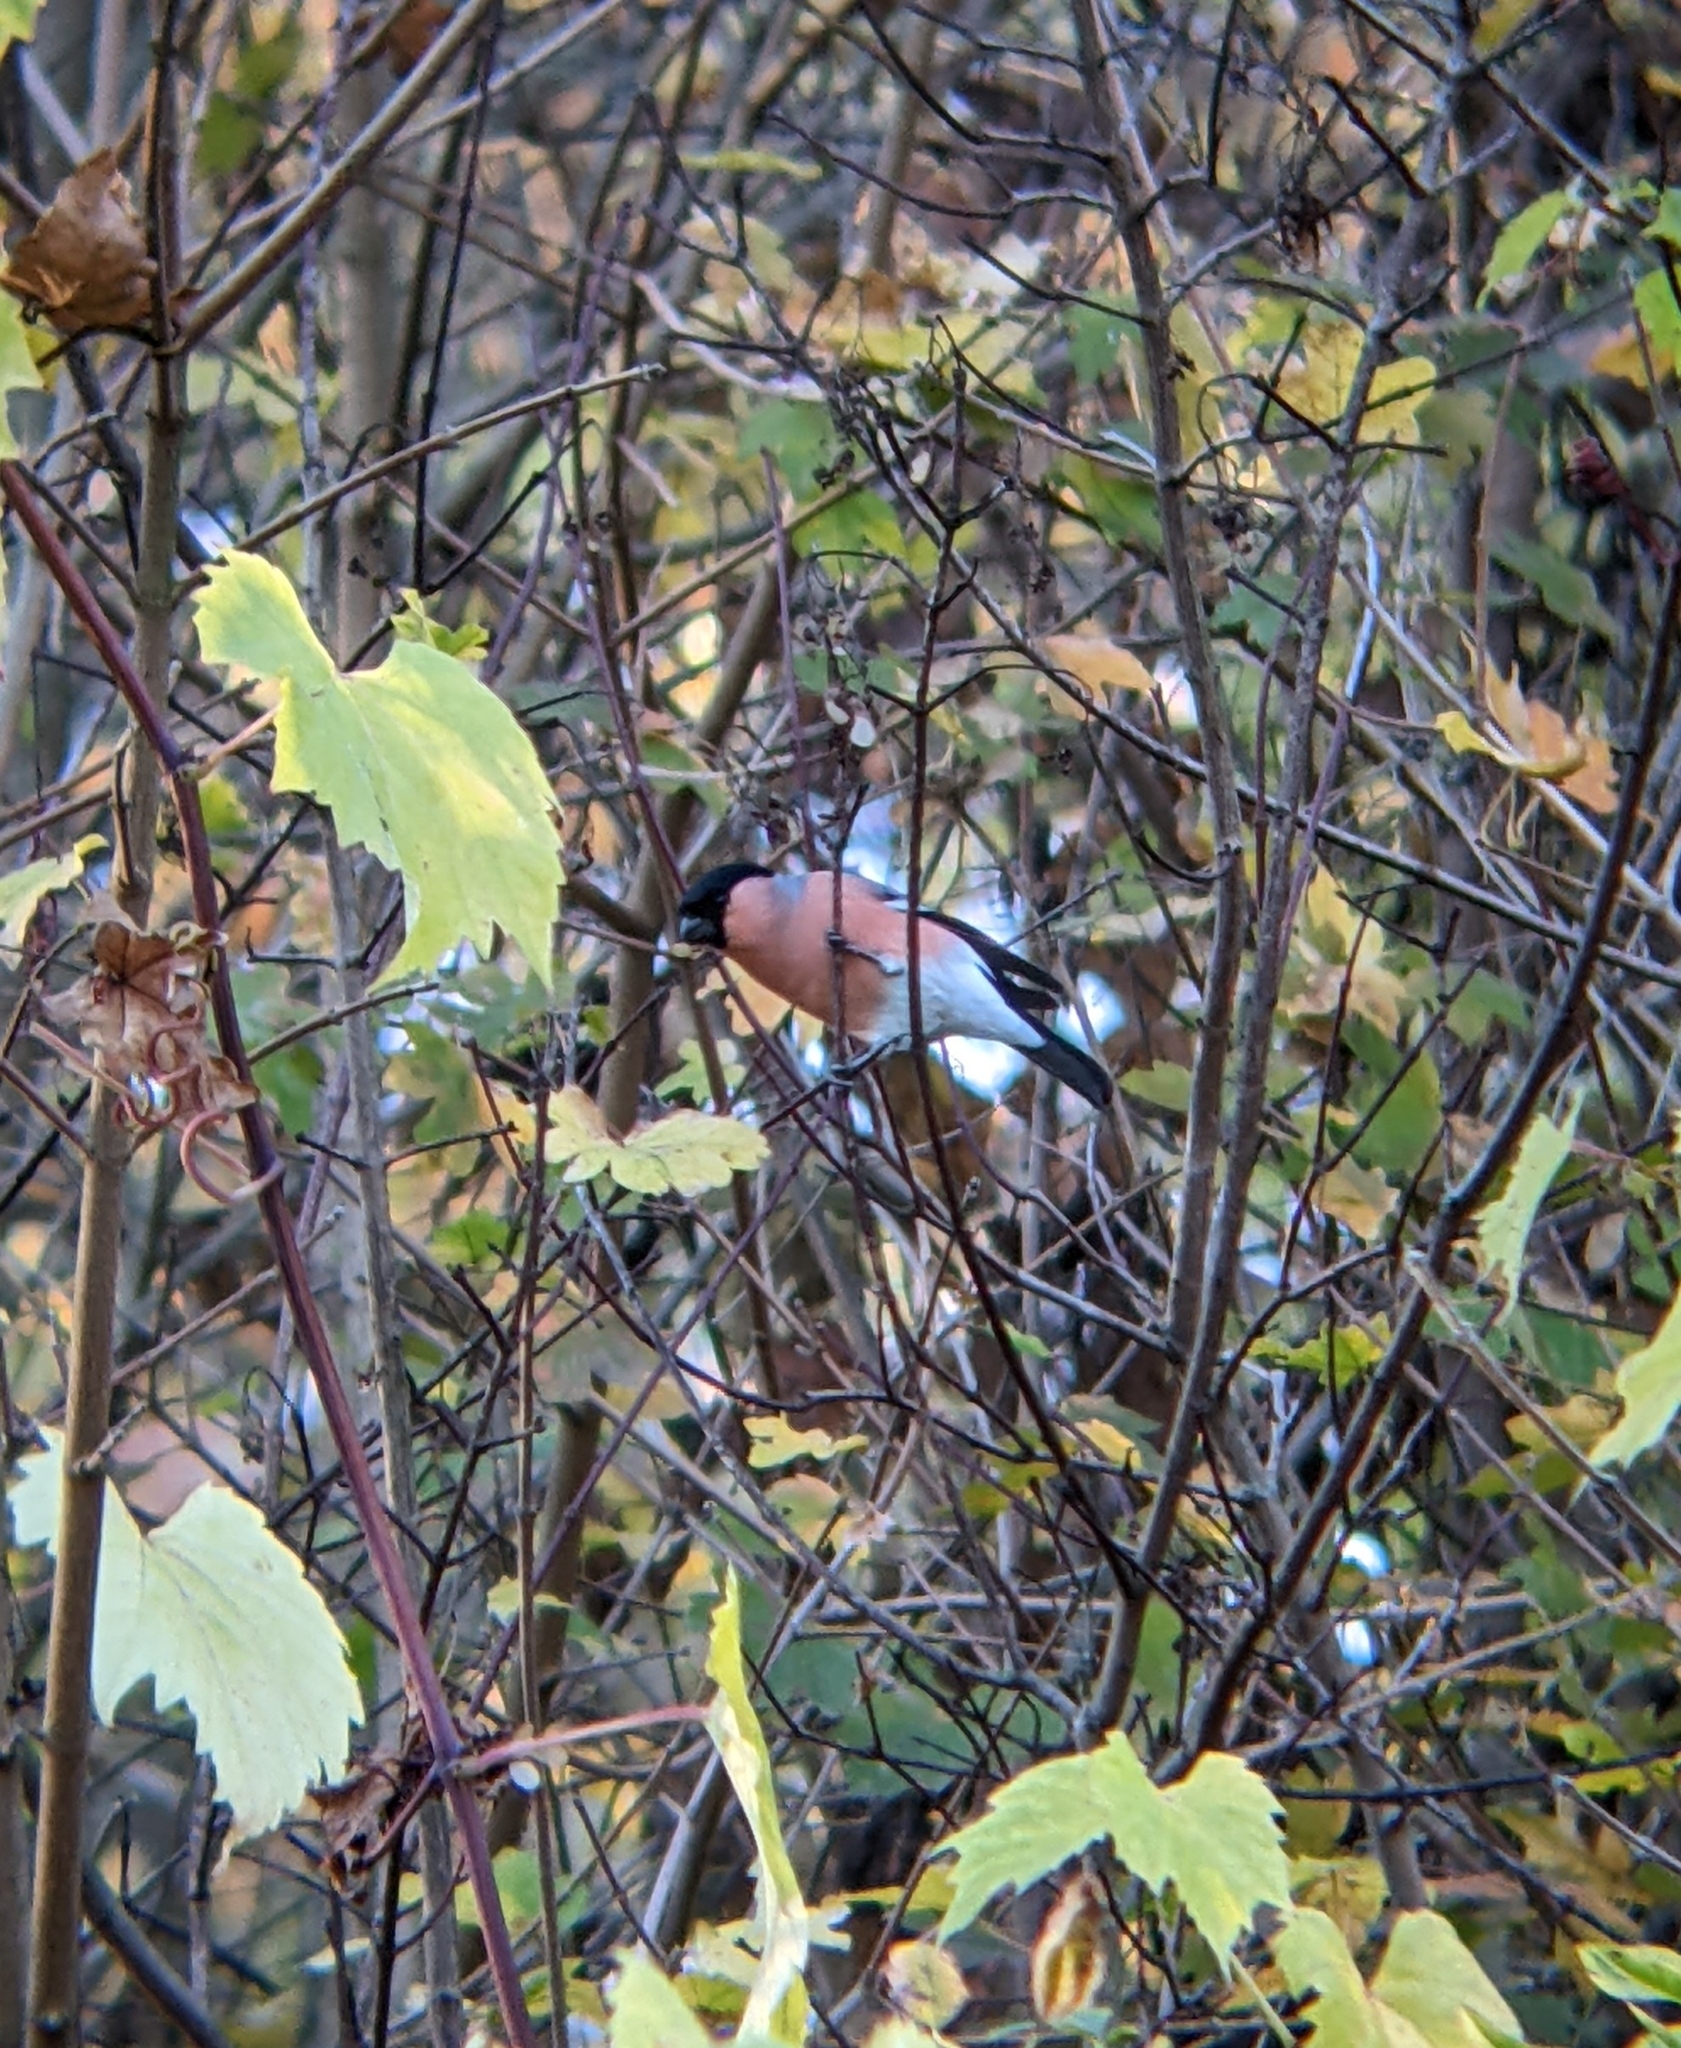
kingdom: Animalia
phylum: Chordata
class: Aves
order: Passeriformes
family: Fringillidae
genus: Pyrrhula
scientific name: Pyrrhula pyrrhula
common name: Eurasian bullfinch
